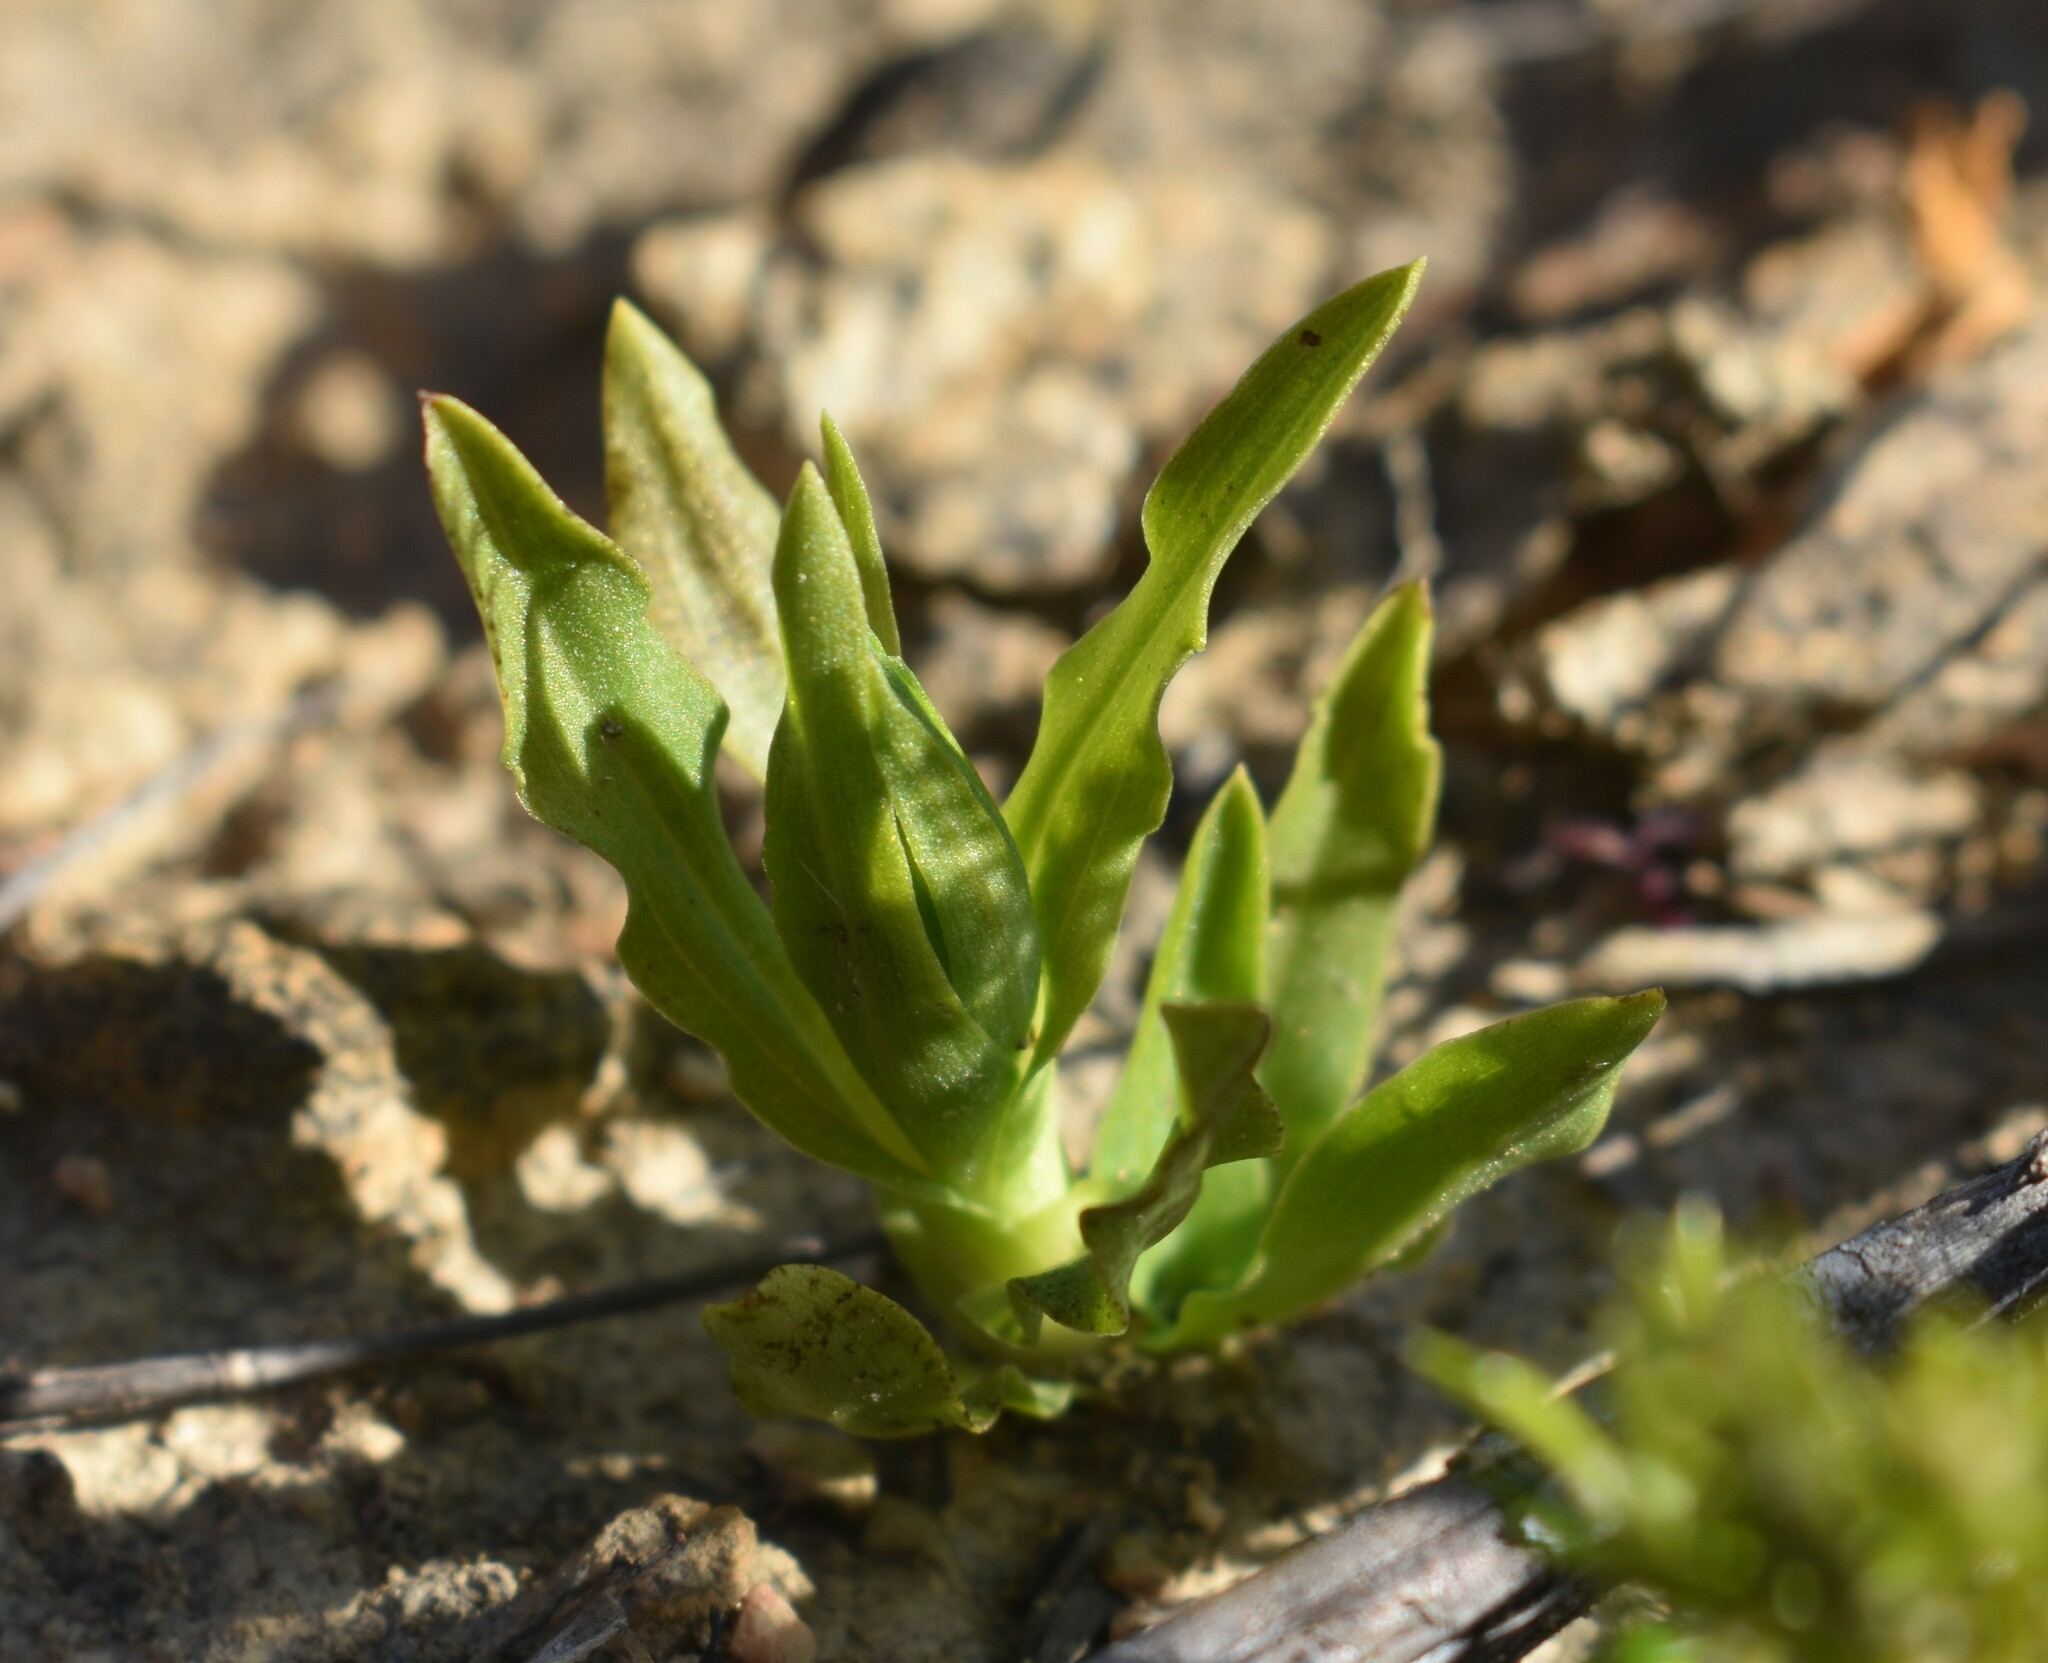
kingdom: Plantae
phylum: Tracheophyta
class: Liliopsida
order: Asparagales
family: Orchidaceae
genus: Pterygodium
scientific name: Pterygodium alatum
